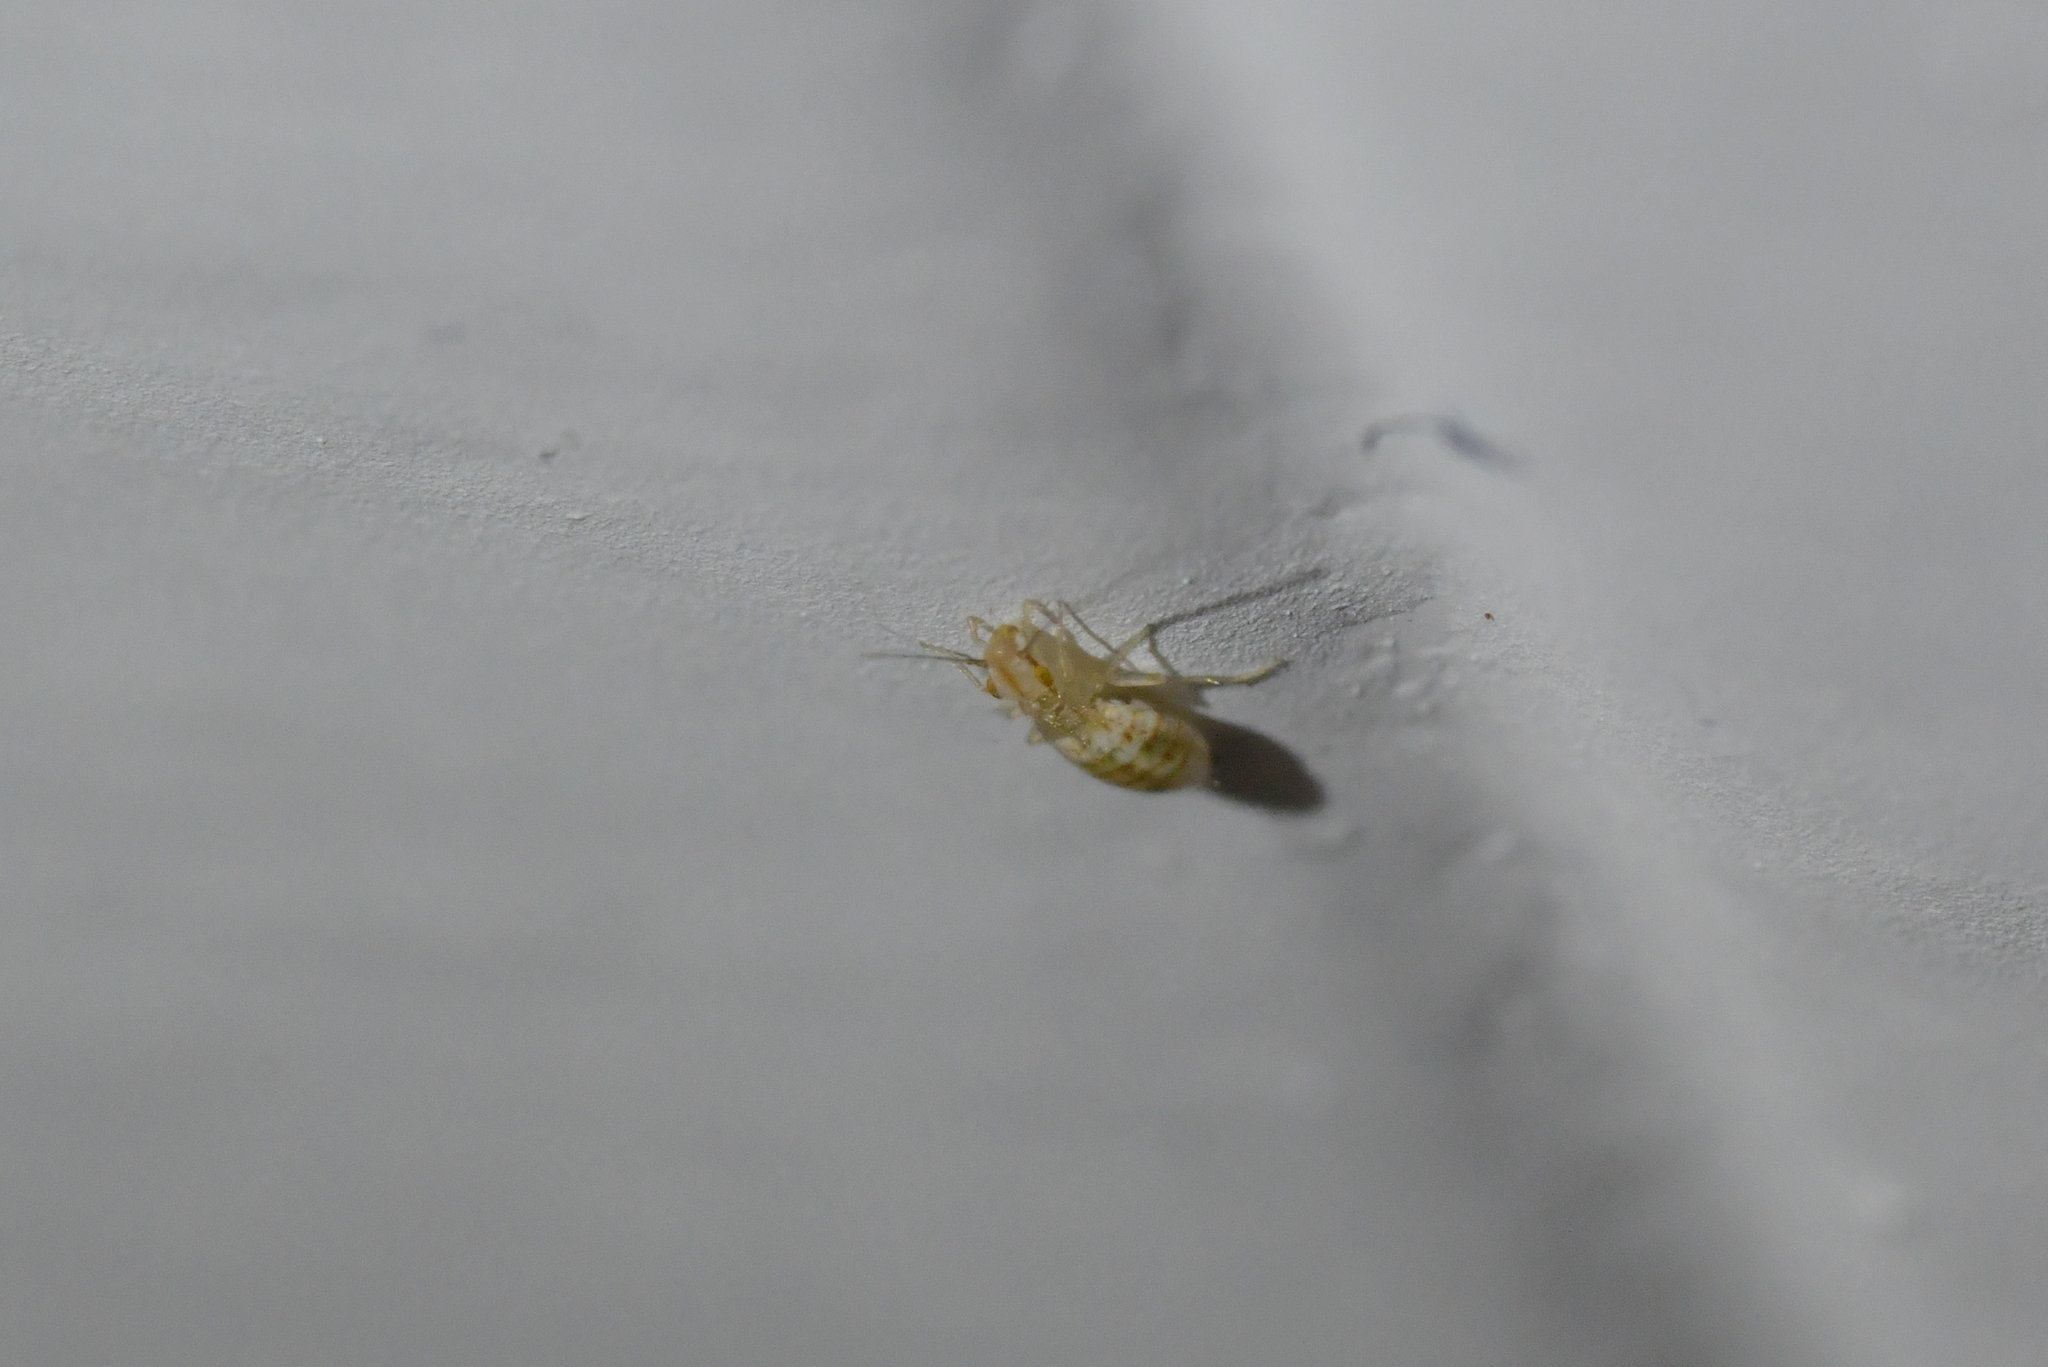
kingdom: Animalia
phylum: Arthropoda
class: Insecta
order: Psocodea
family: Trogiidae
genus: Trogium
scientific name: Trogium pulsatorium
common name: Granary book louse
